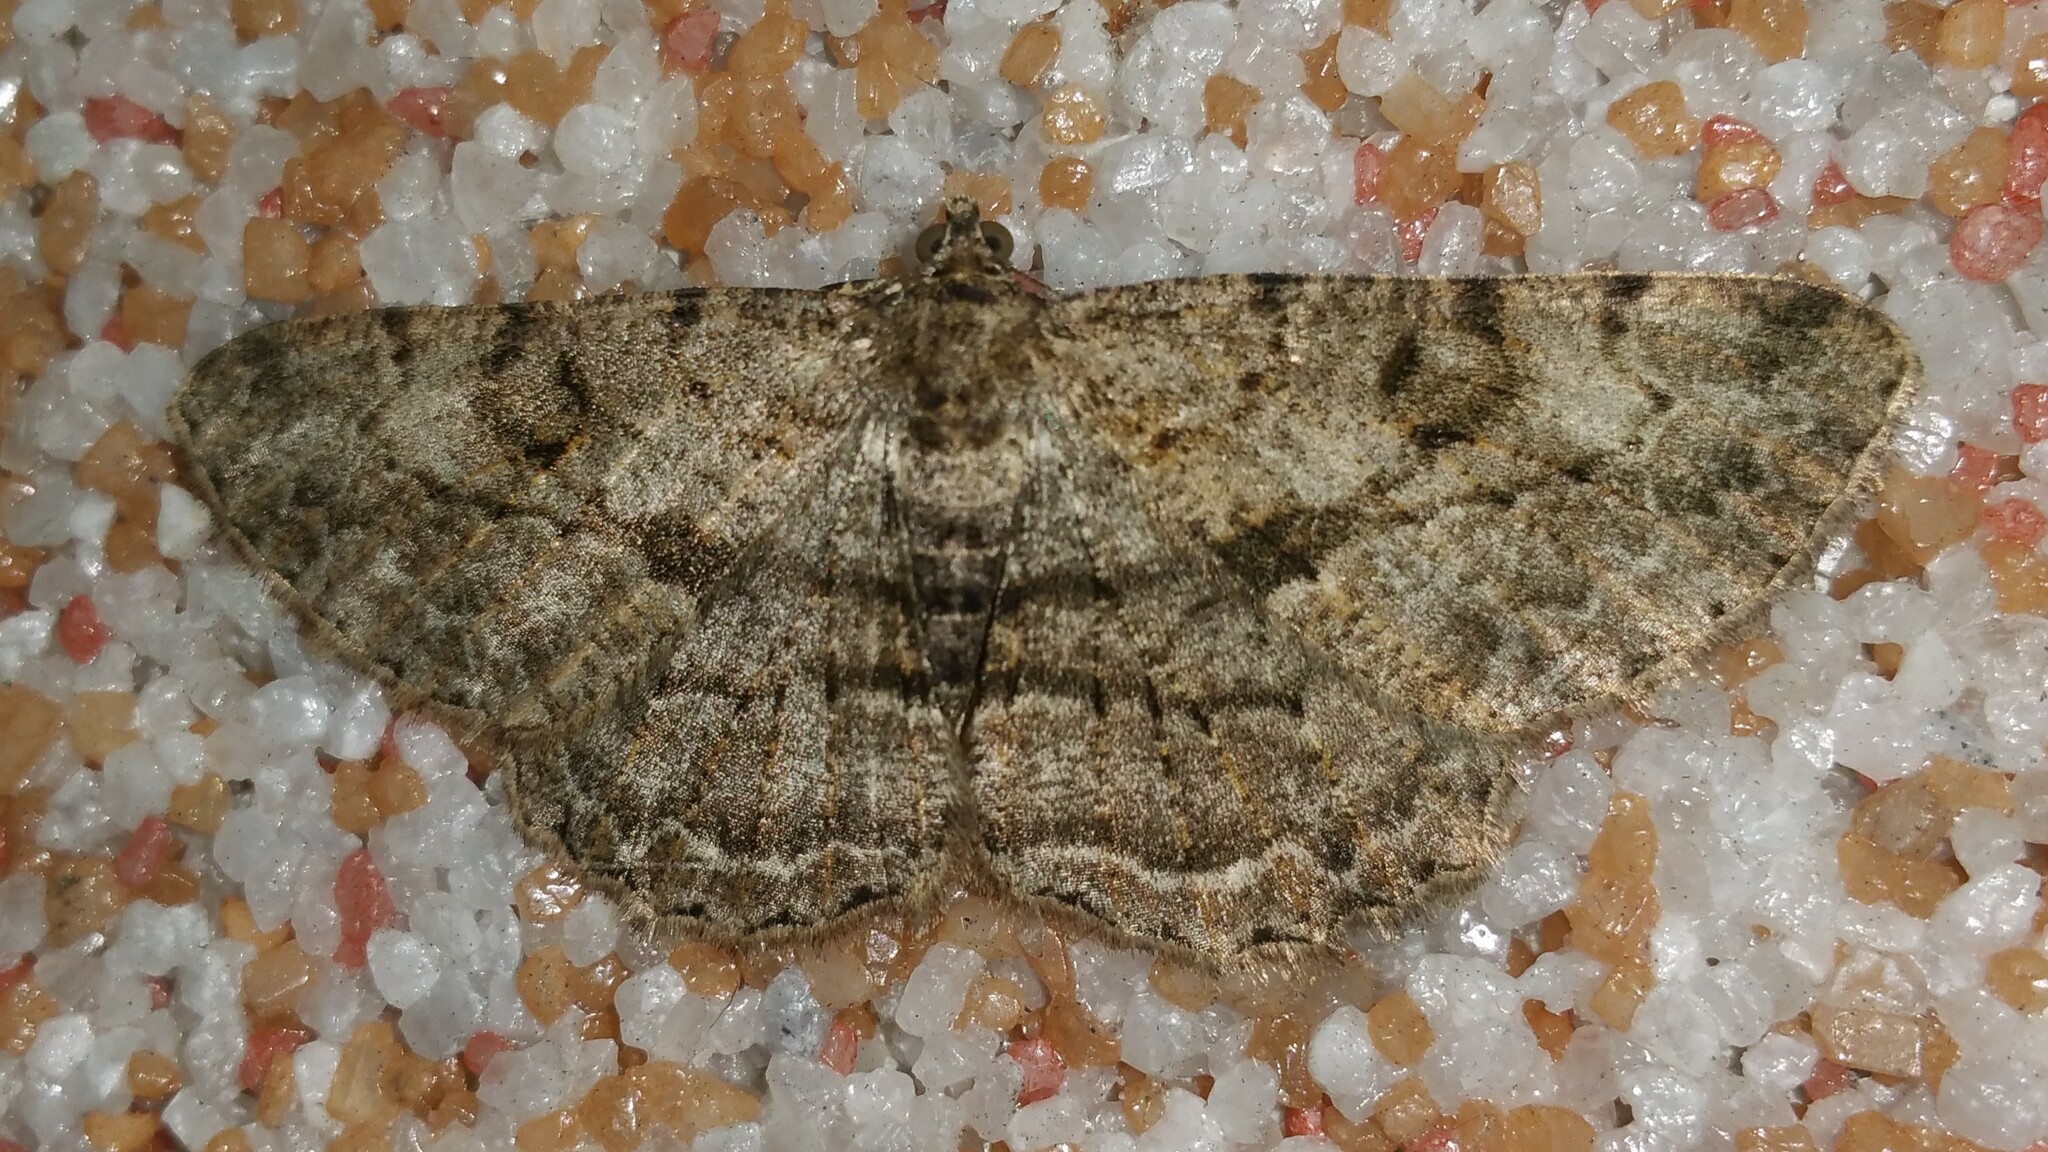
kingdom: Animalia
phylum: Arthropoda
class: Insecta
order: Lepidoptera
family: Geometridae
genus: Peribatodes
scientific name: Peribatodes rhomboidaria
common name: Willow beauty
